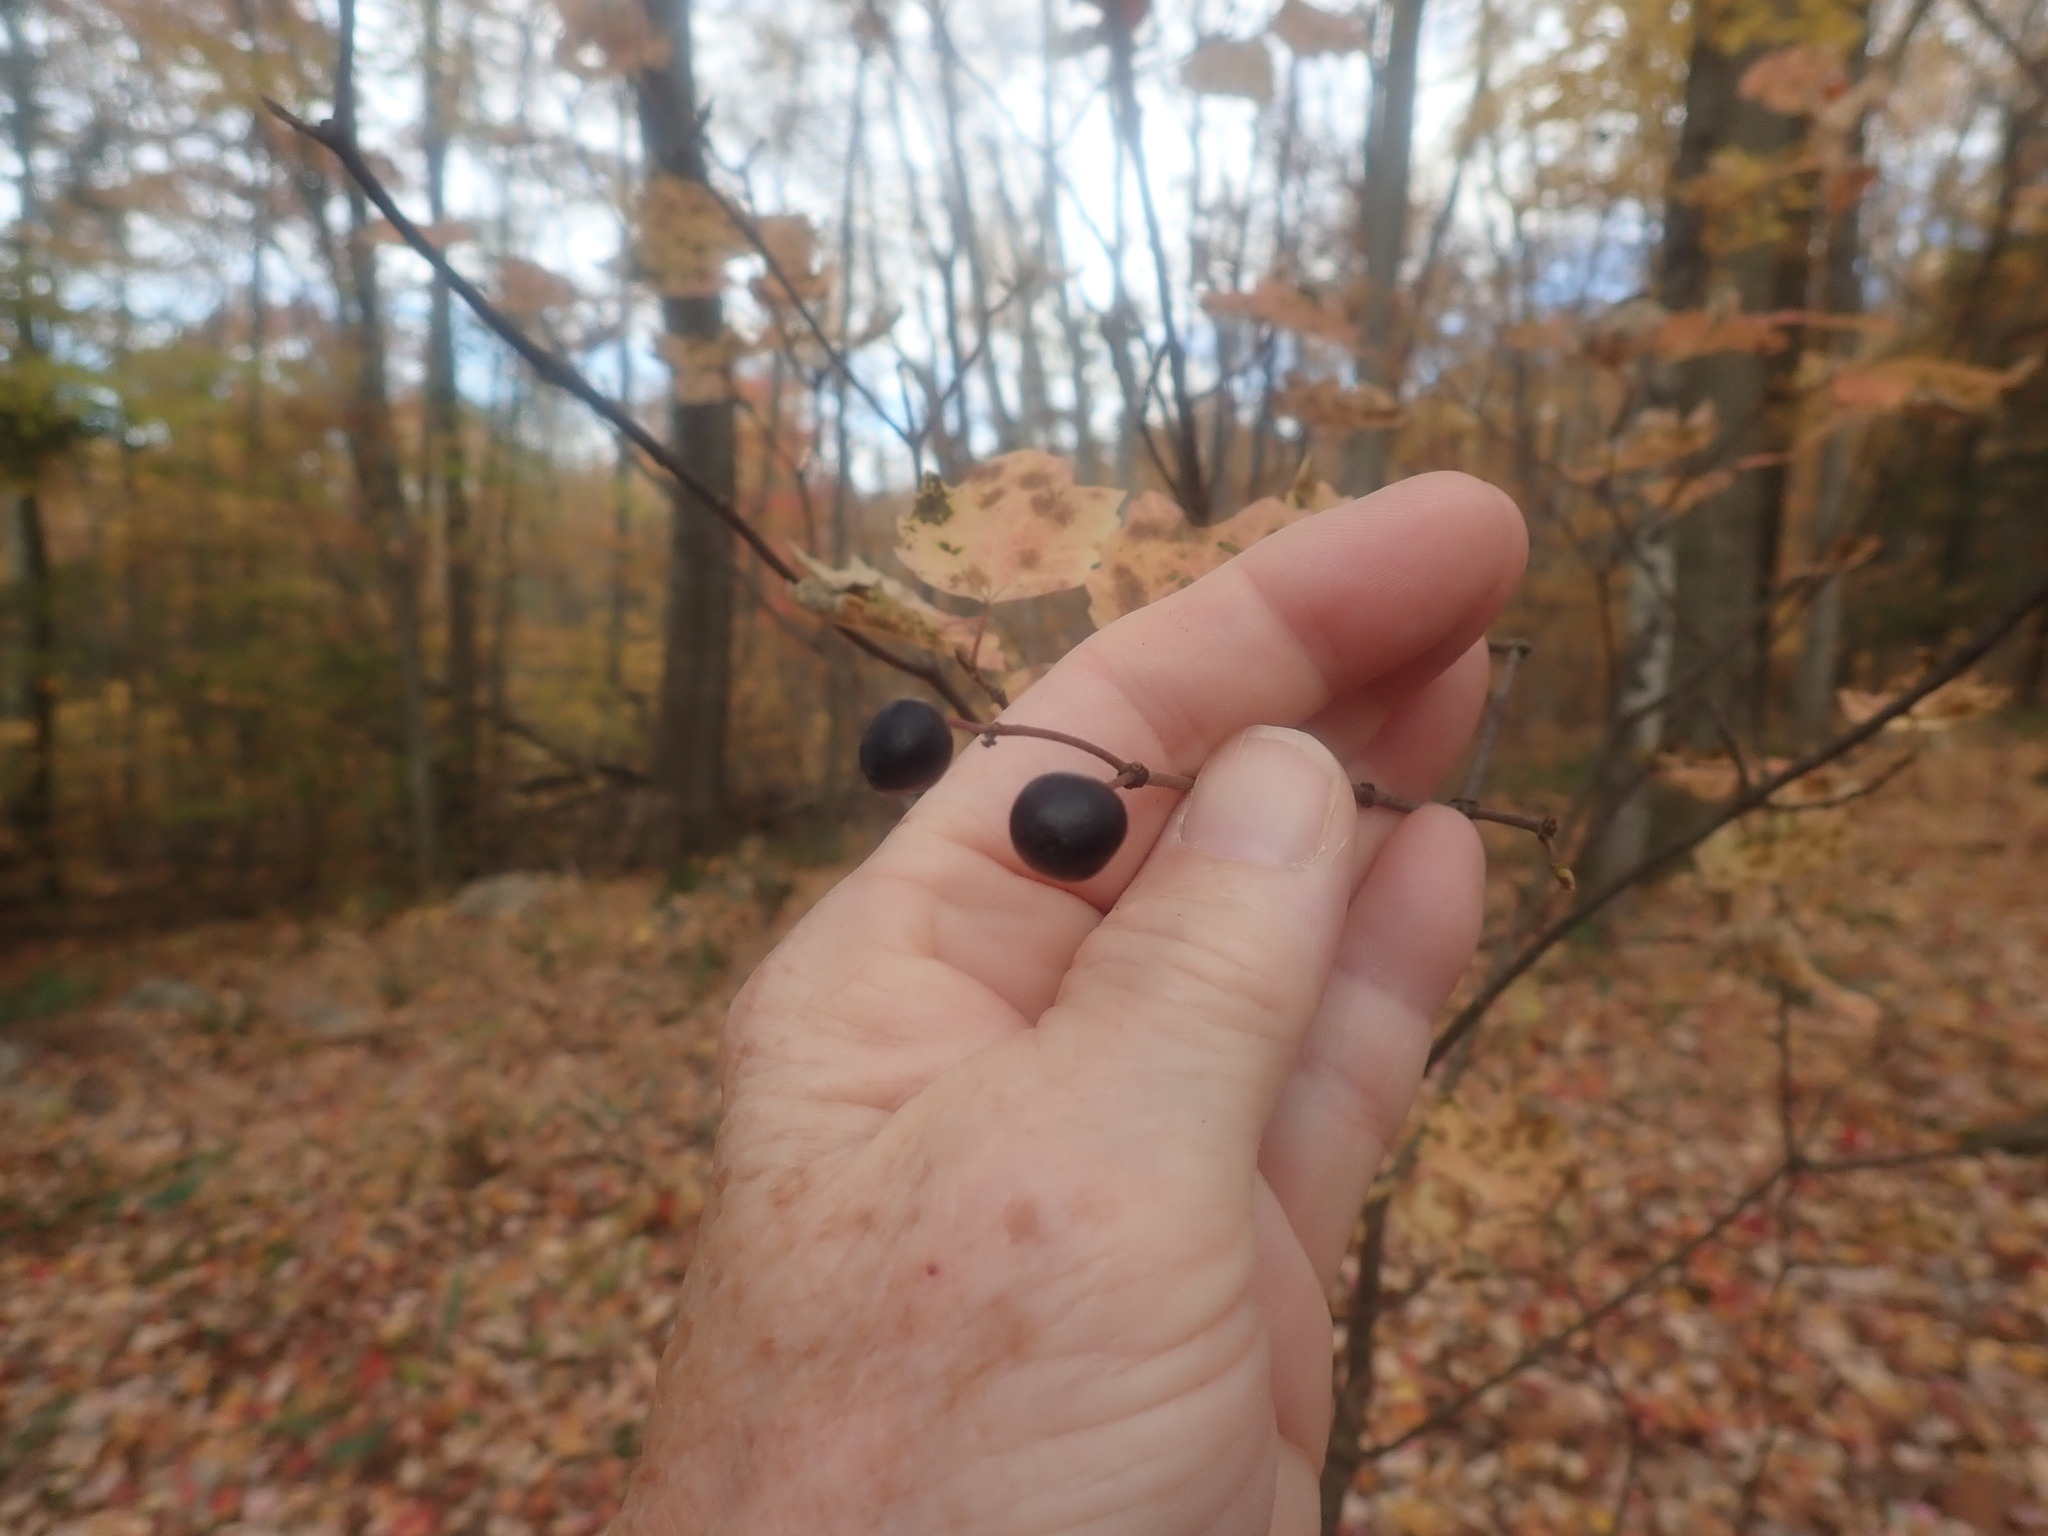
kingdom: Plantae
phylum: Tracheophyta
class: Magnoliopsida
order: Dipsacales
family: Viburnaceae
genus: Viburnum
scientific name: Viburnum acerifolium
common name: Dockmackie
